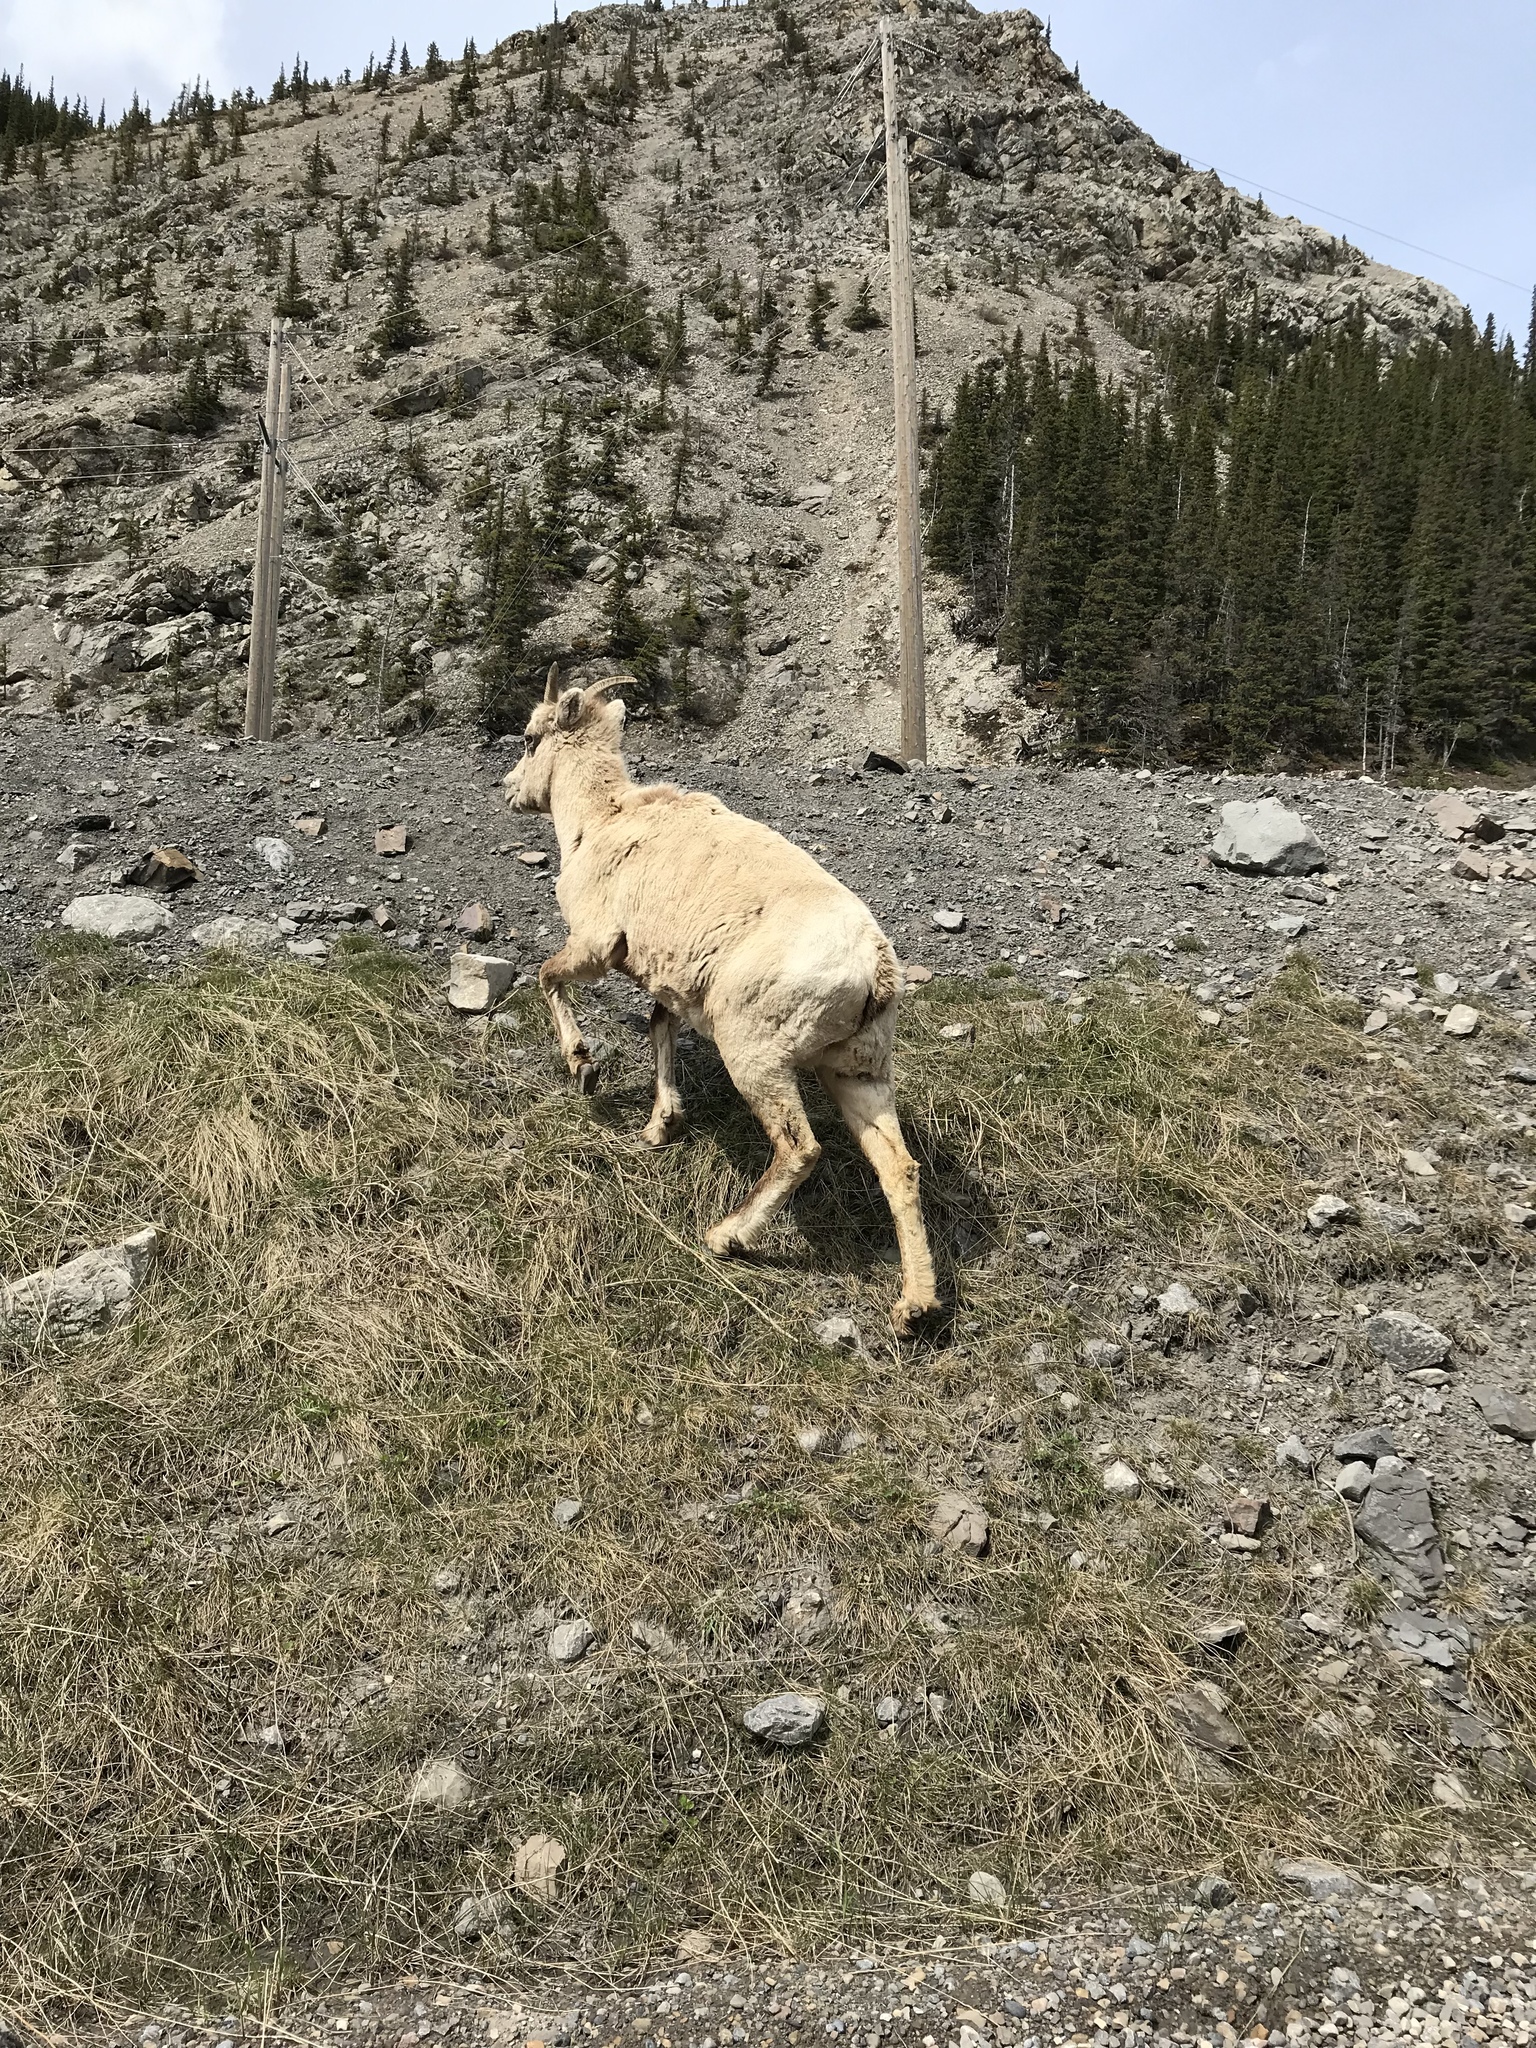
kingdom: Animalia
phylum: Chordata
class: Mammalia
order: Artiodactyla
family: Bovidae
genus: Ovis
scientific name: Ovis canadensis
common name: Bighorn sheep
